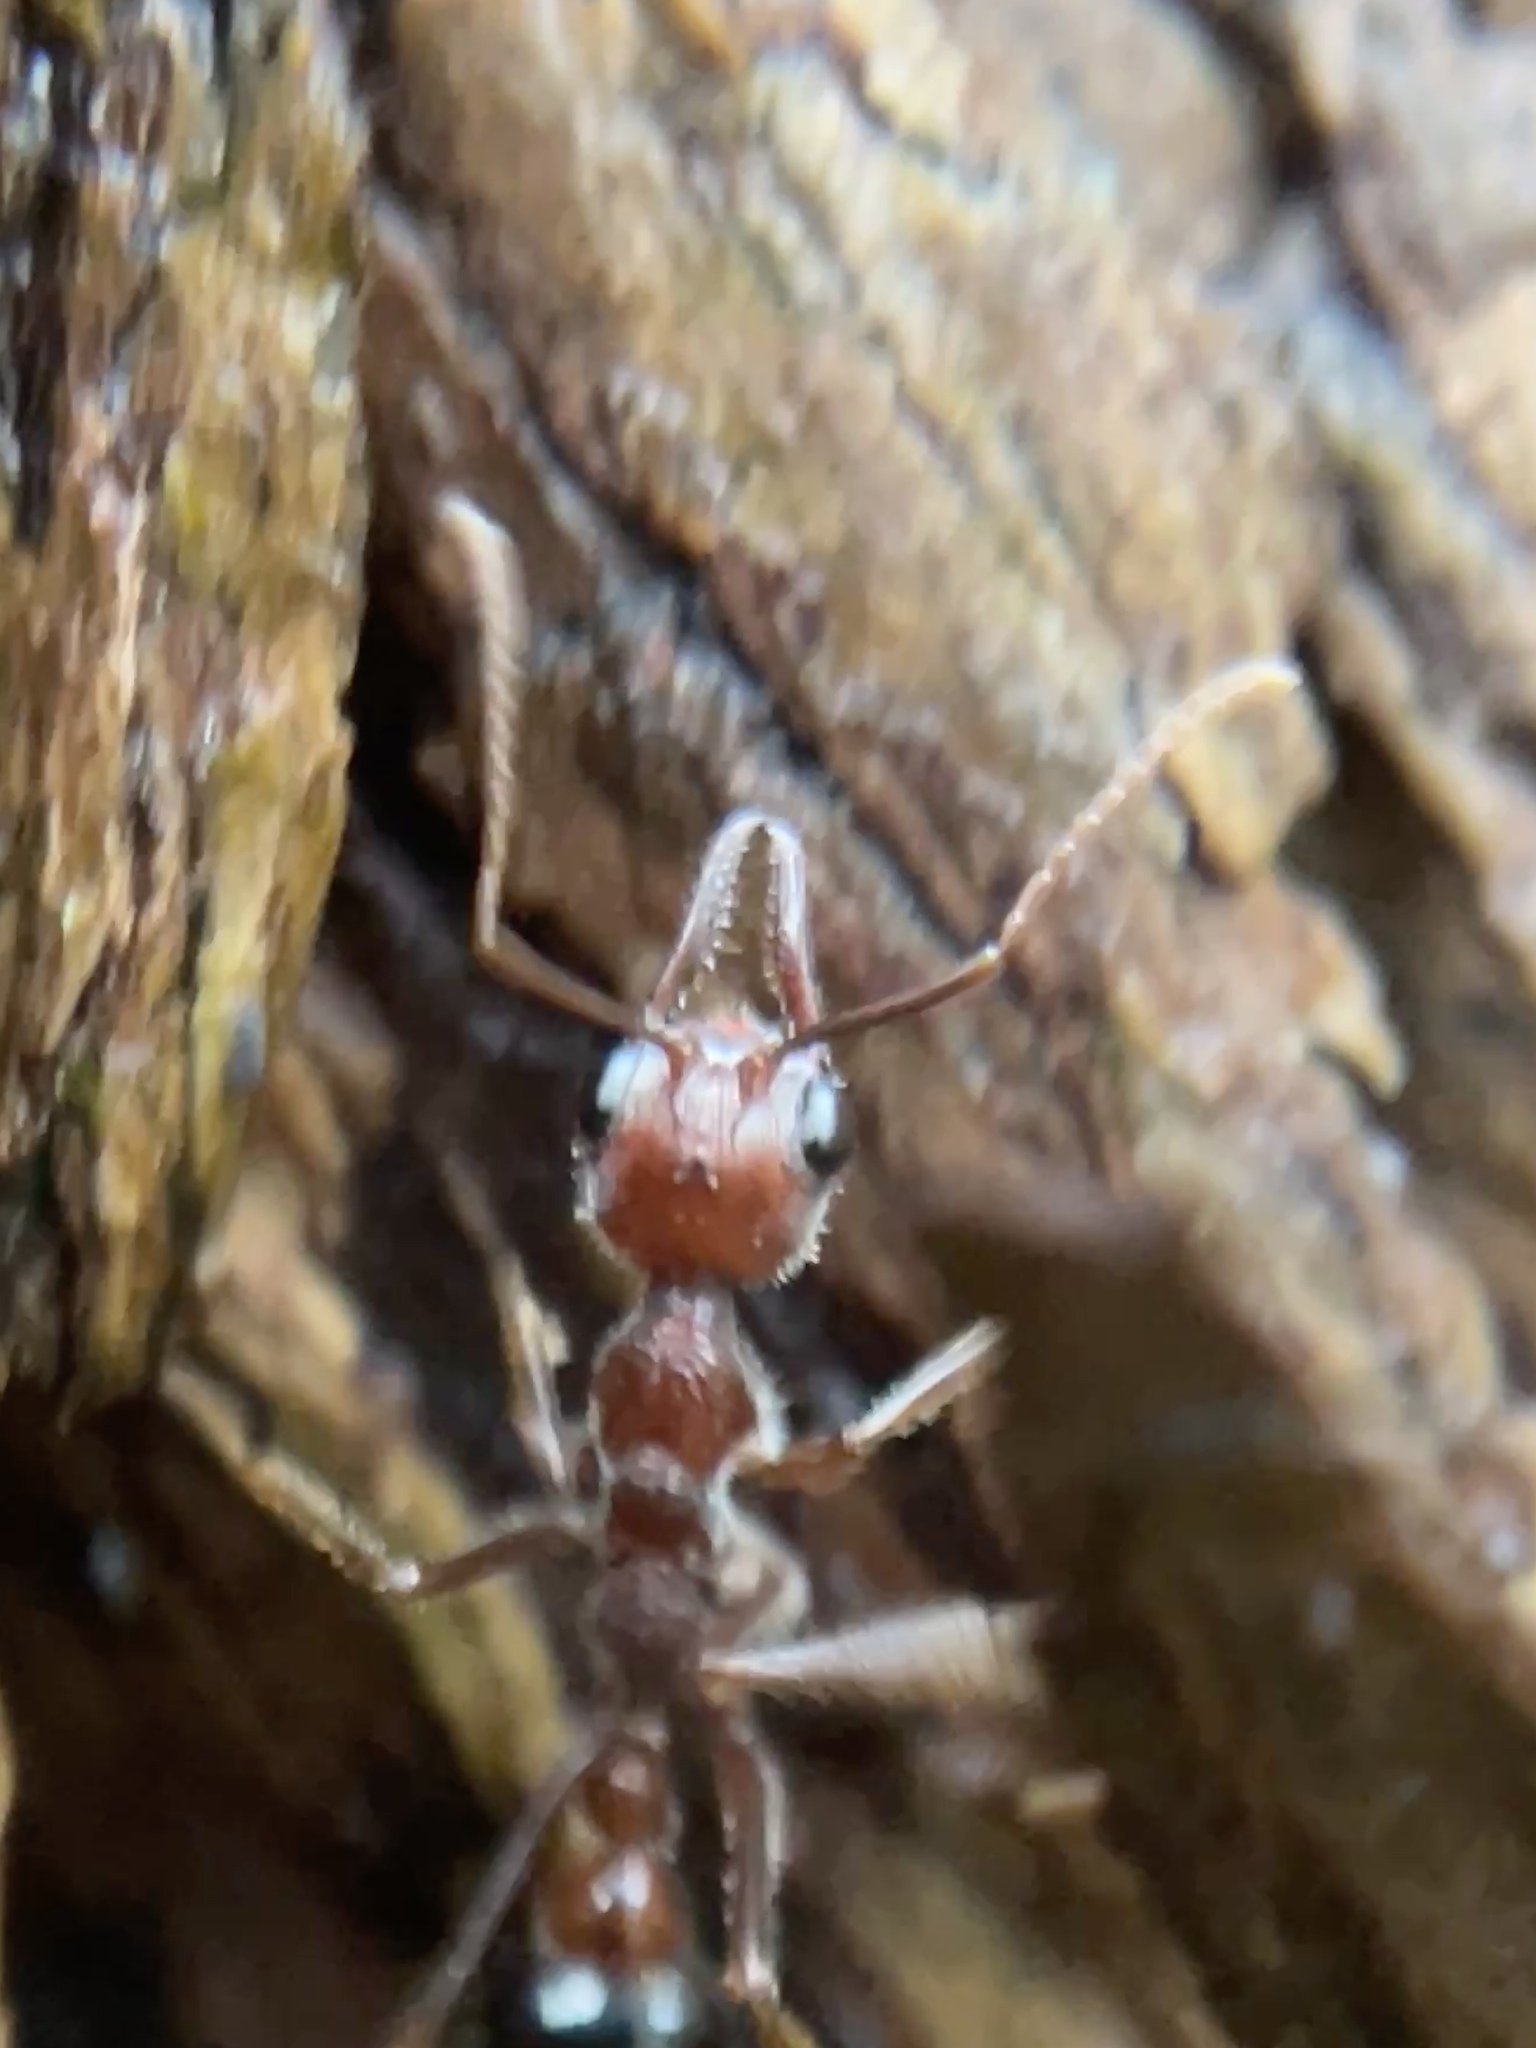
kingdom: Animalia
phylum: Arthropoda
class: Insecta
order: Hymenoptera
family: Formicidae
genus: Myrmecia
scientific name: Myrmecia
